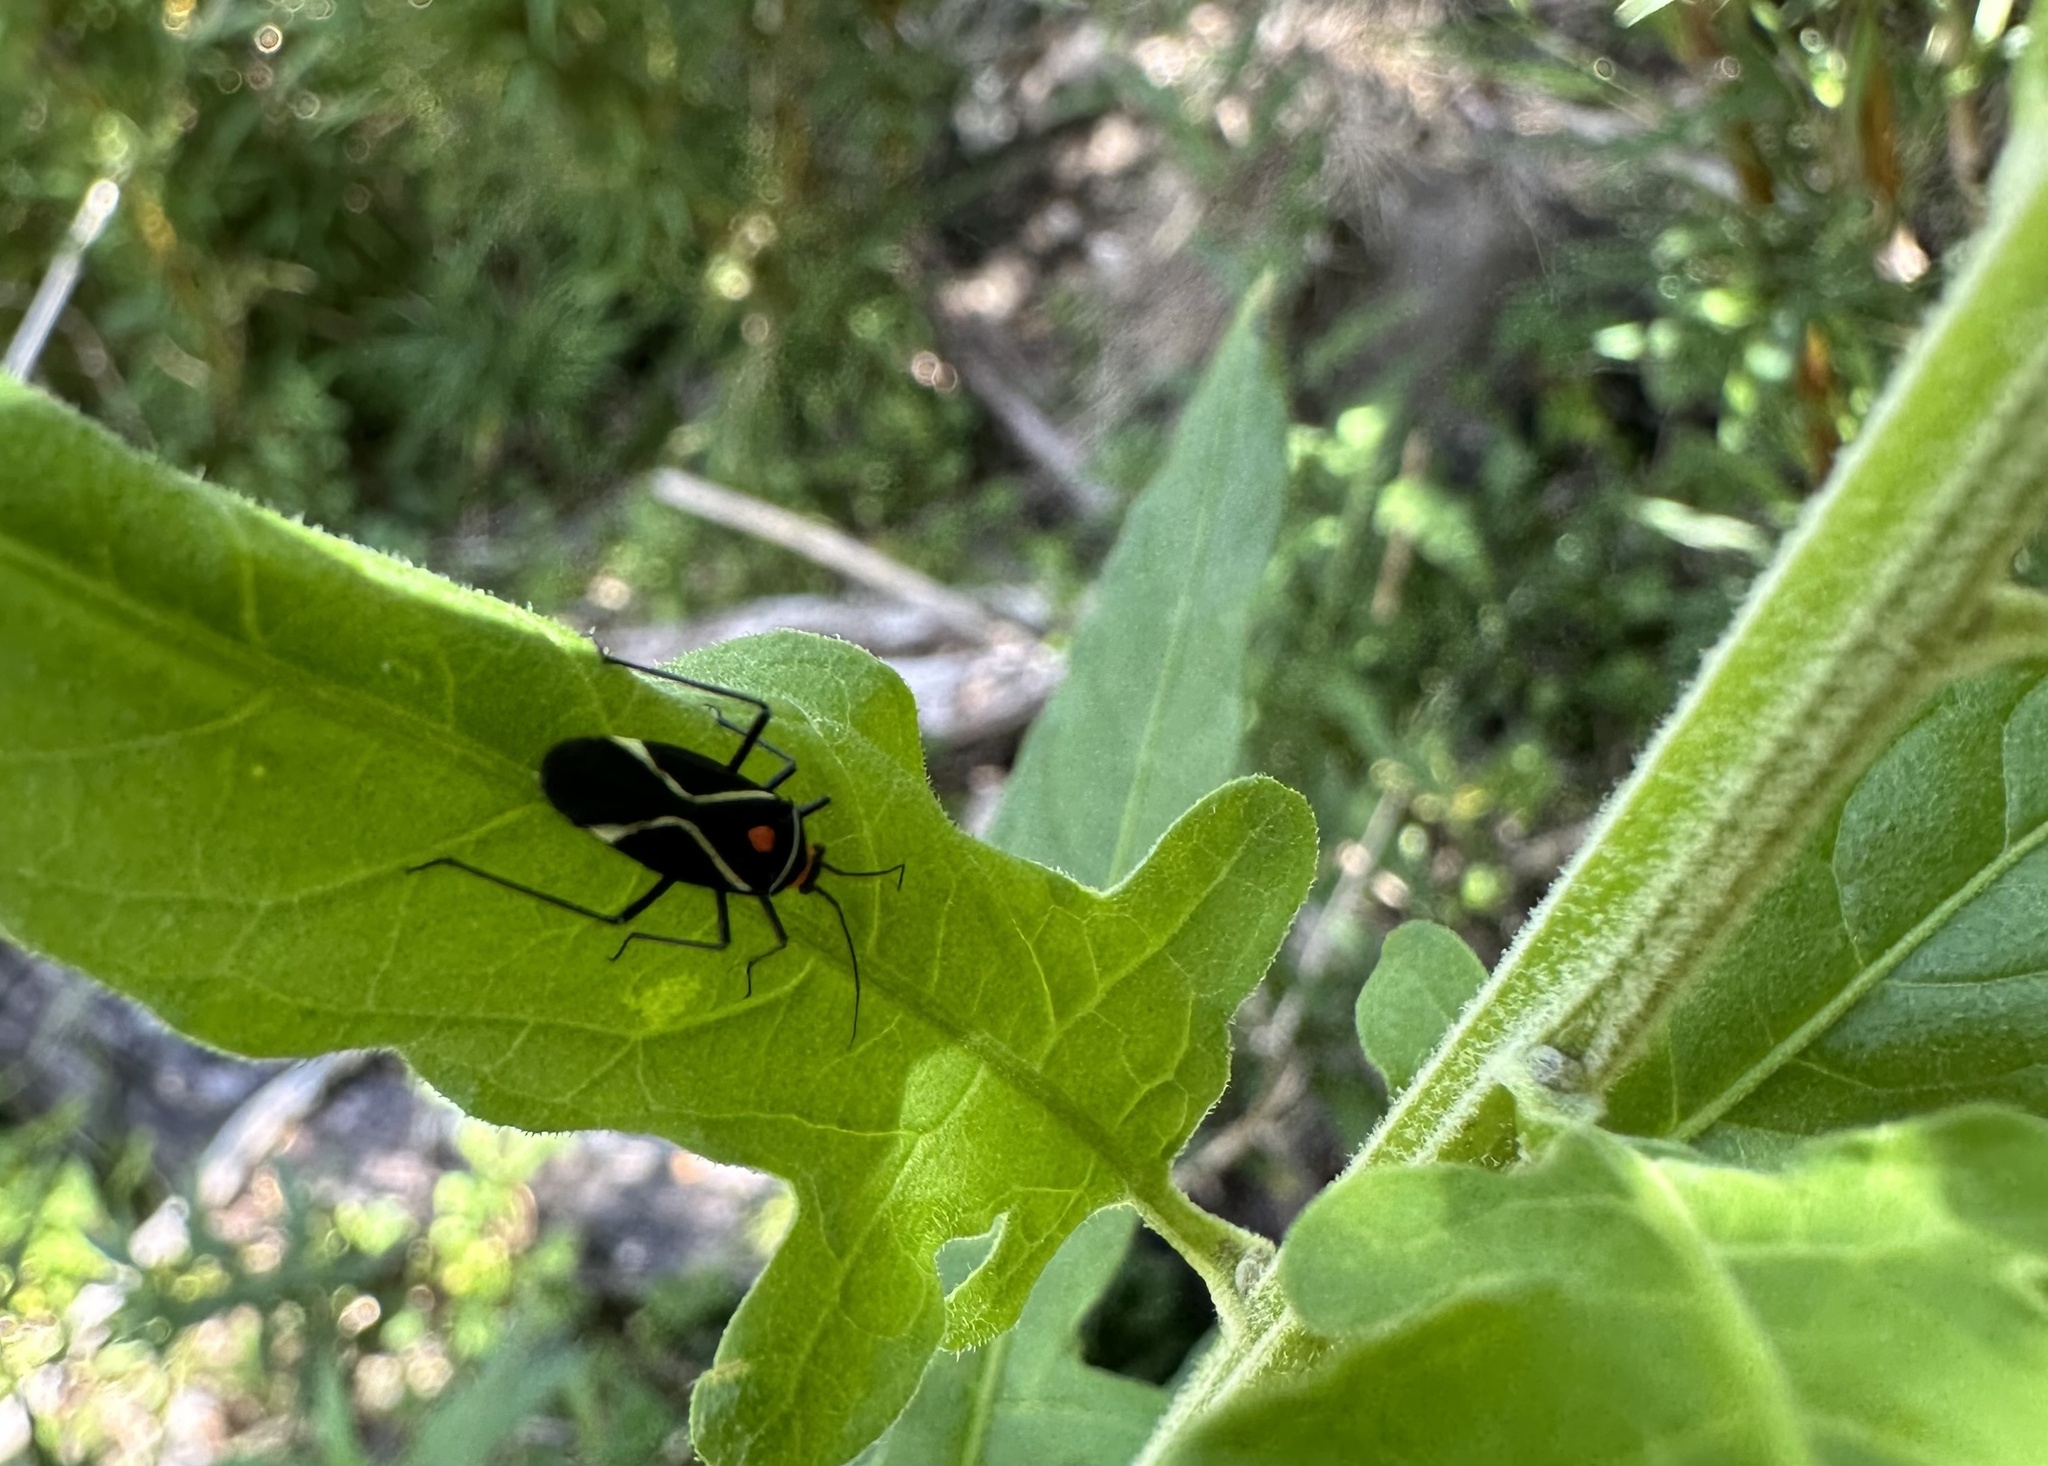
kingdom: Animalia
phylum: Arthropoda
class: Insecta
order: Hemiptera
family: Miridae
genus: Eurylomata
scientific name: Eurylomata picturata
